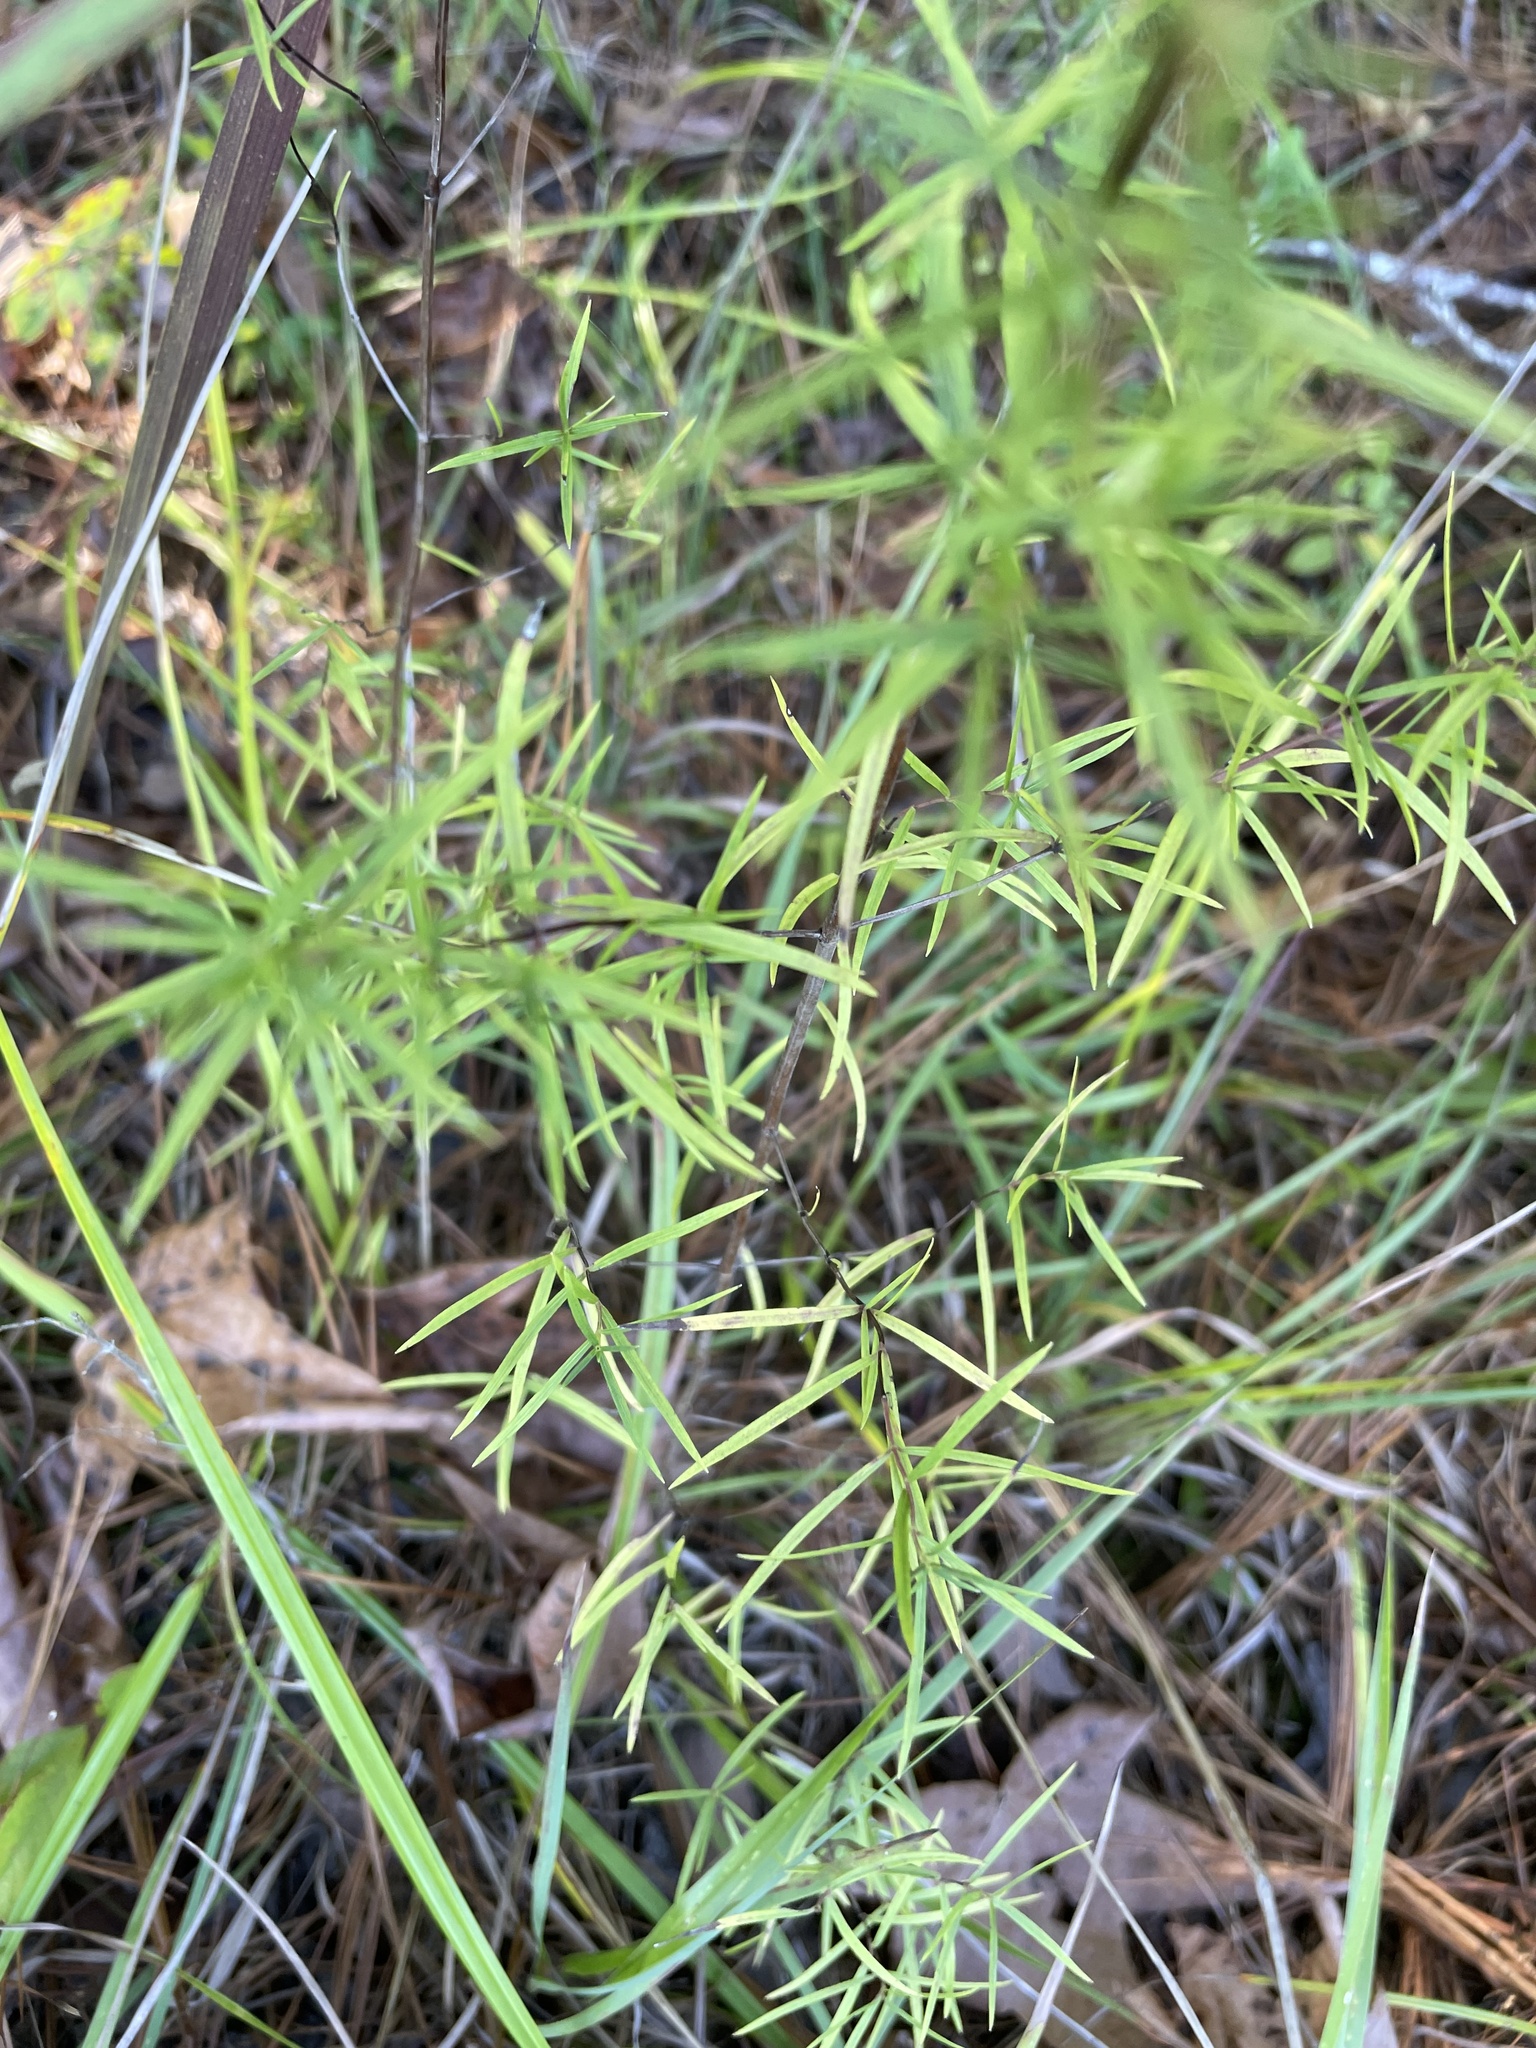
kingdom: Plantae
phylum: Tracheophyta
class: Magnoliopsida
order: Lamiales
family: Lamiaceae
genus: Pycnanthemum
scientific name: Pycnanthemum tenuifolium
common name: Narrow-leaf mountain-mint
